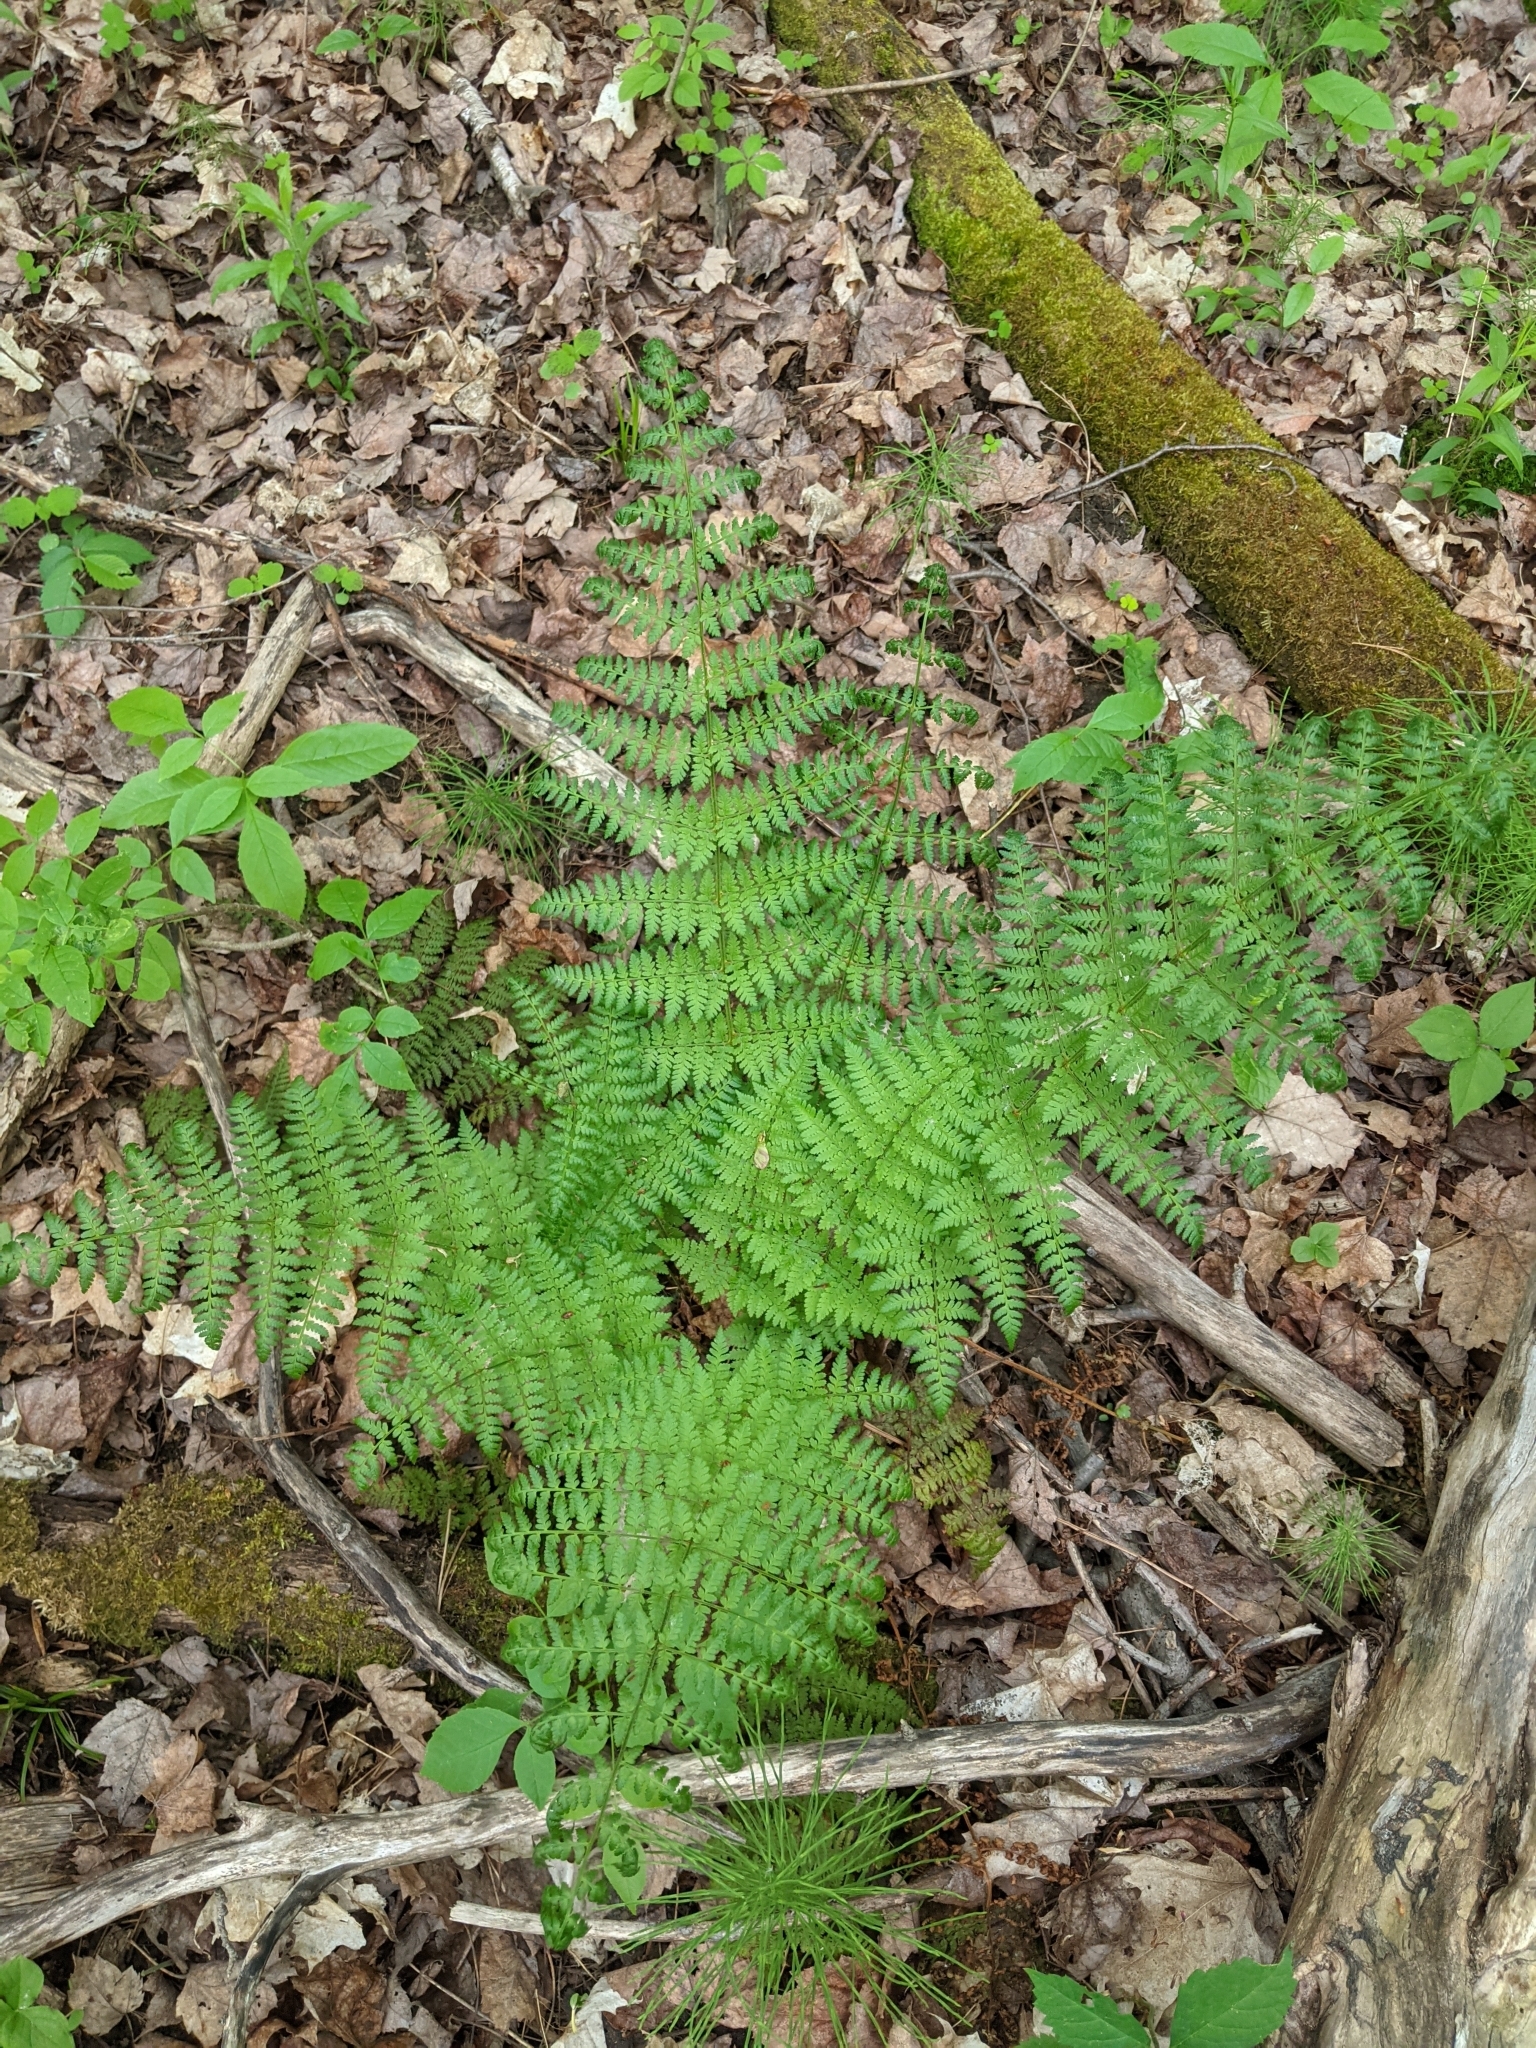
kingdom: Plantae
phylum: Tracheophyta
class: Polypodiopsida
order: Polypodiales
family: Dryopteridaceae
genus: Dryopteris
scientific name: Dryopteris intermedia
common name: Evergreen wood fern
